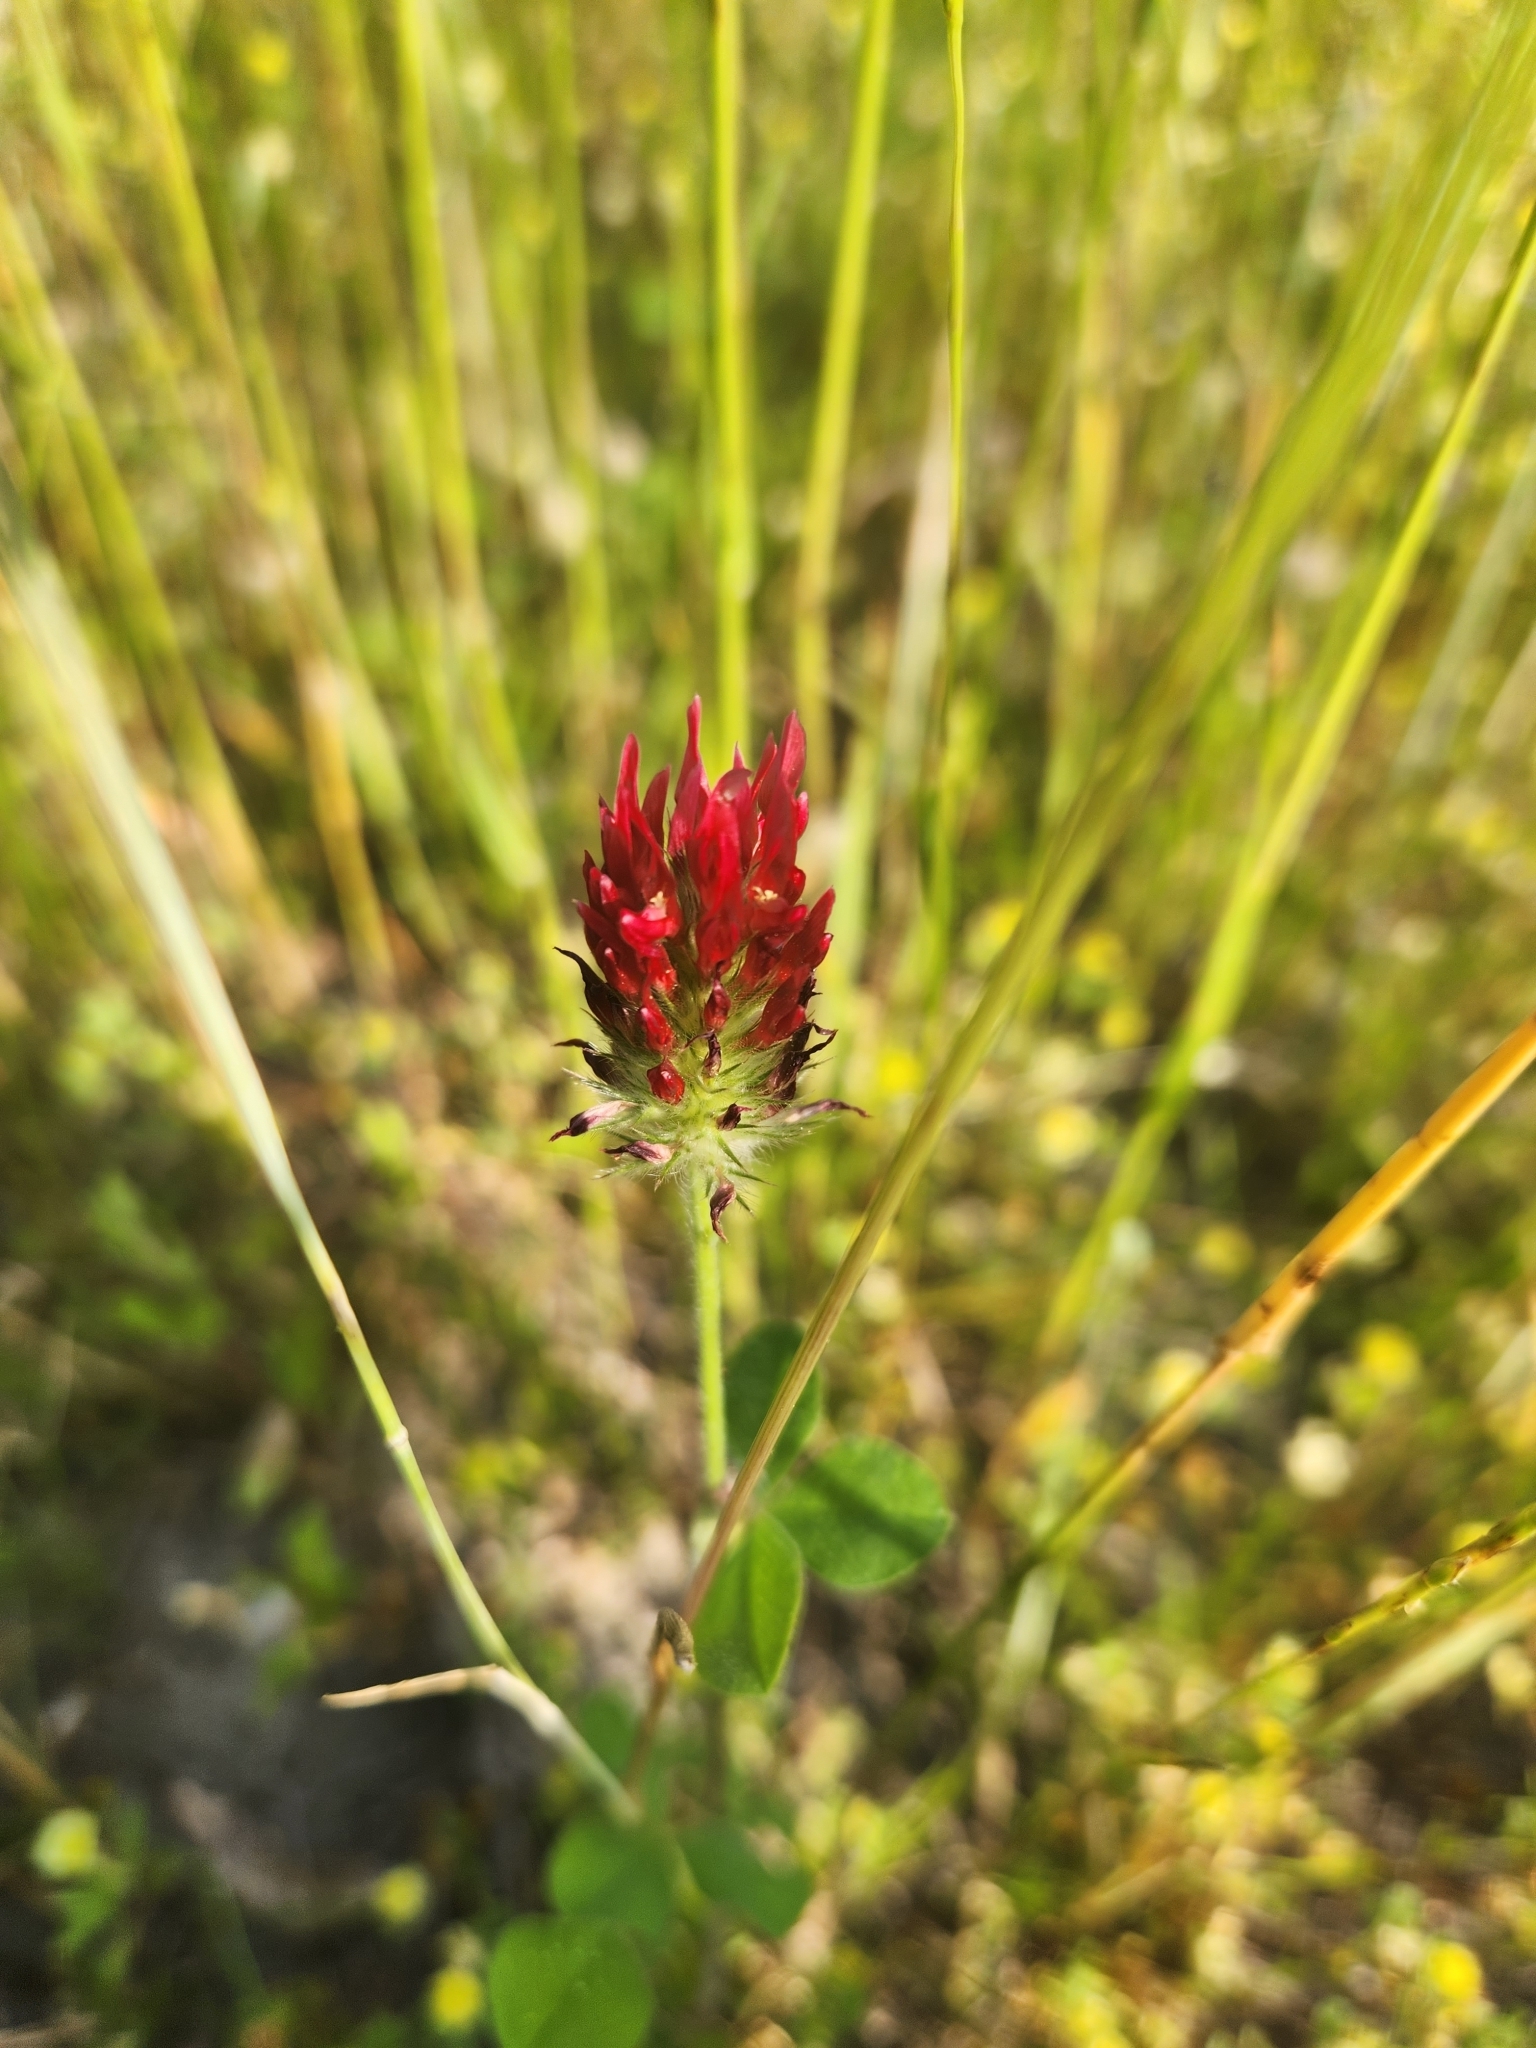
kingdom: Plantae
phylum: Tracheophyta
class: Magnoliopsida
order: Fabales
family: Fabaceae
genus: Trifolium
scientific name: Trifolium incarnatum
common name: Crimson clover
